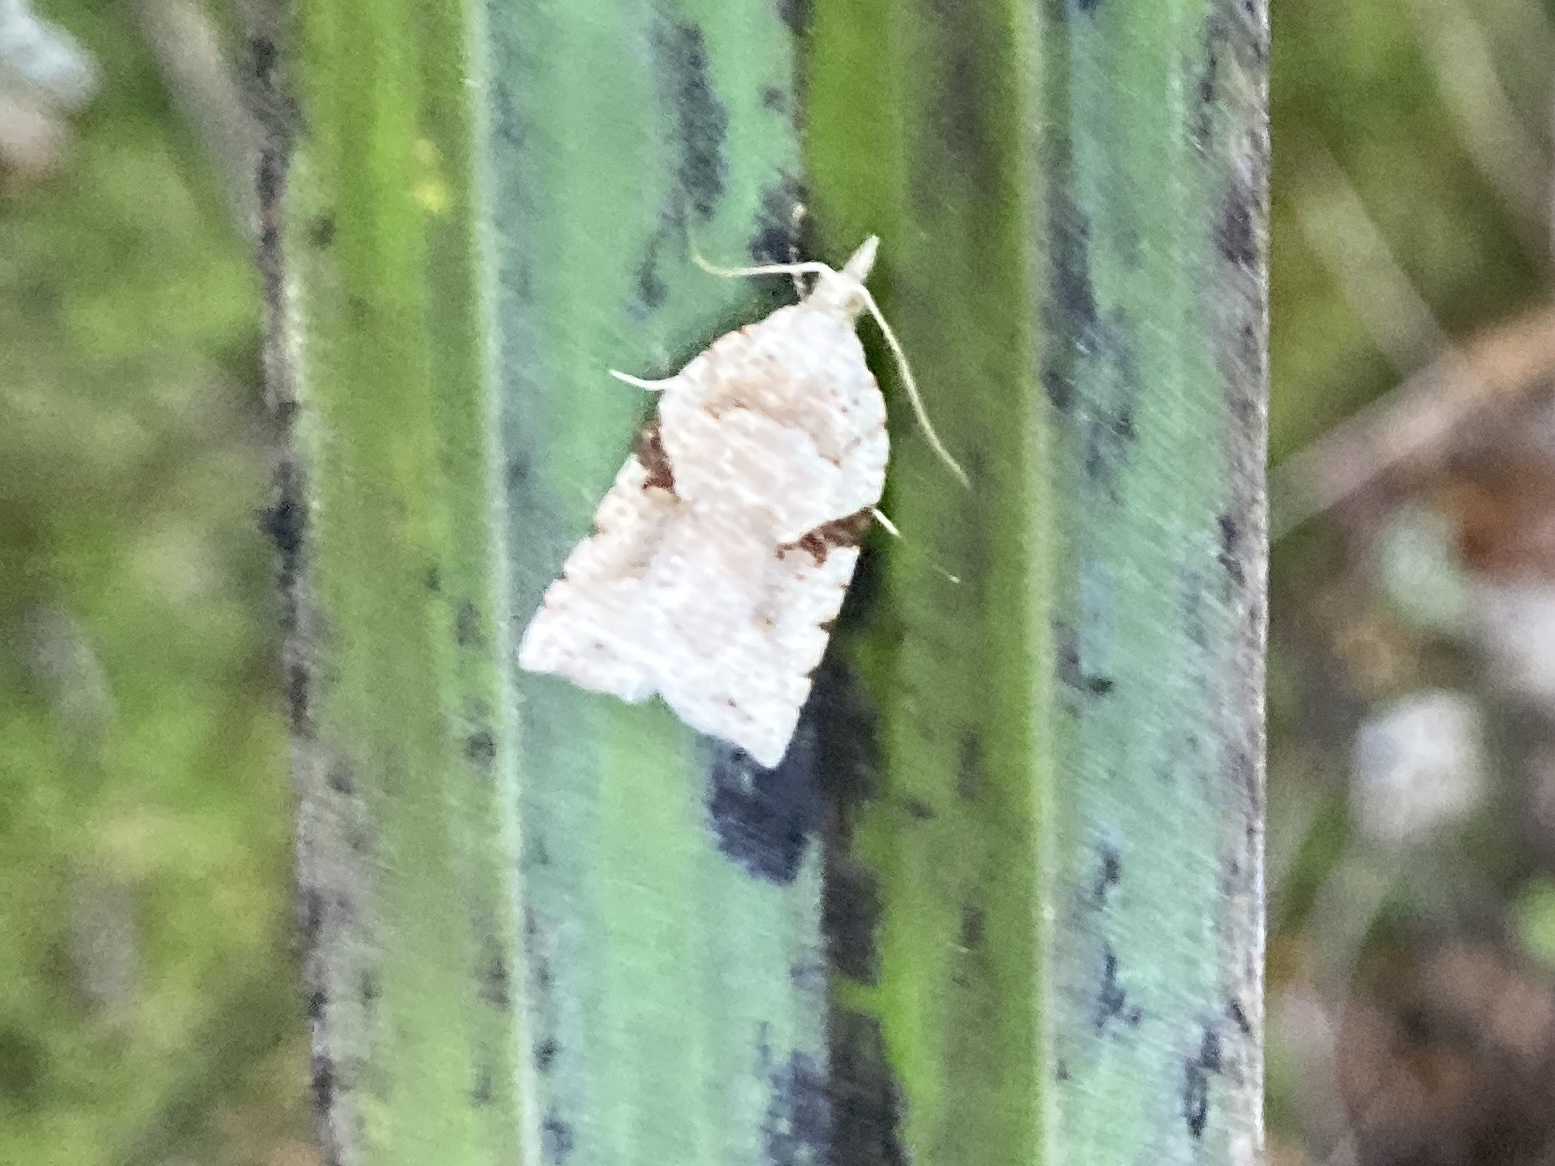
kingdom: Animalia
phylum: Arthropoda
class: Insecta
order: Lepidoptera
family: Tortricidae
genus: Leucotenes
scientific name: Leucotenes coprosmae
